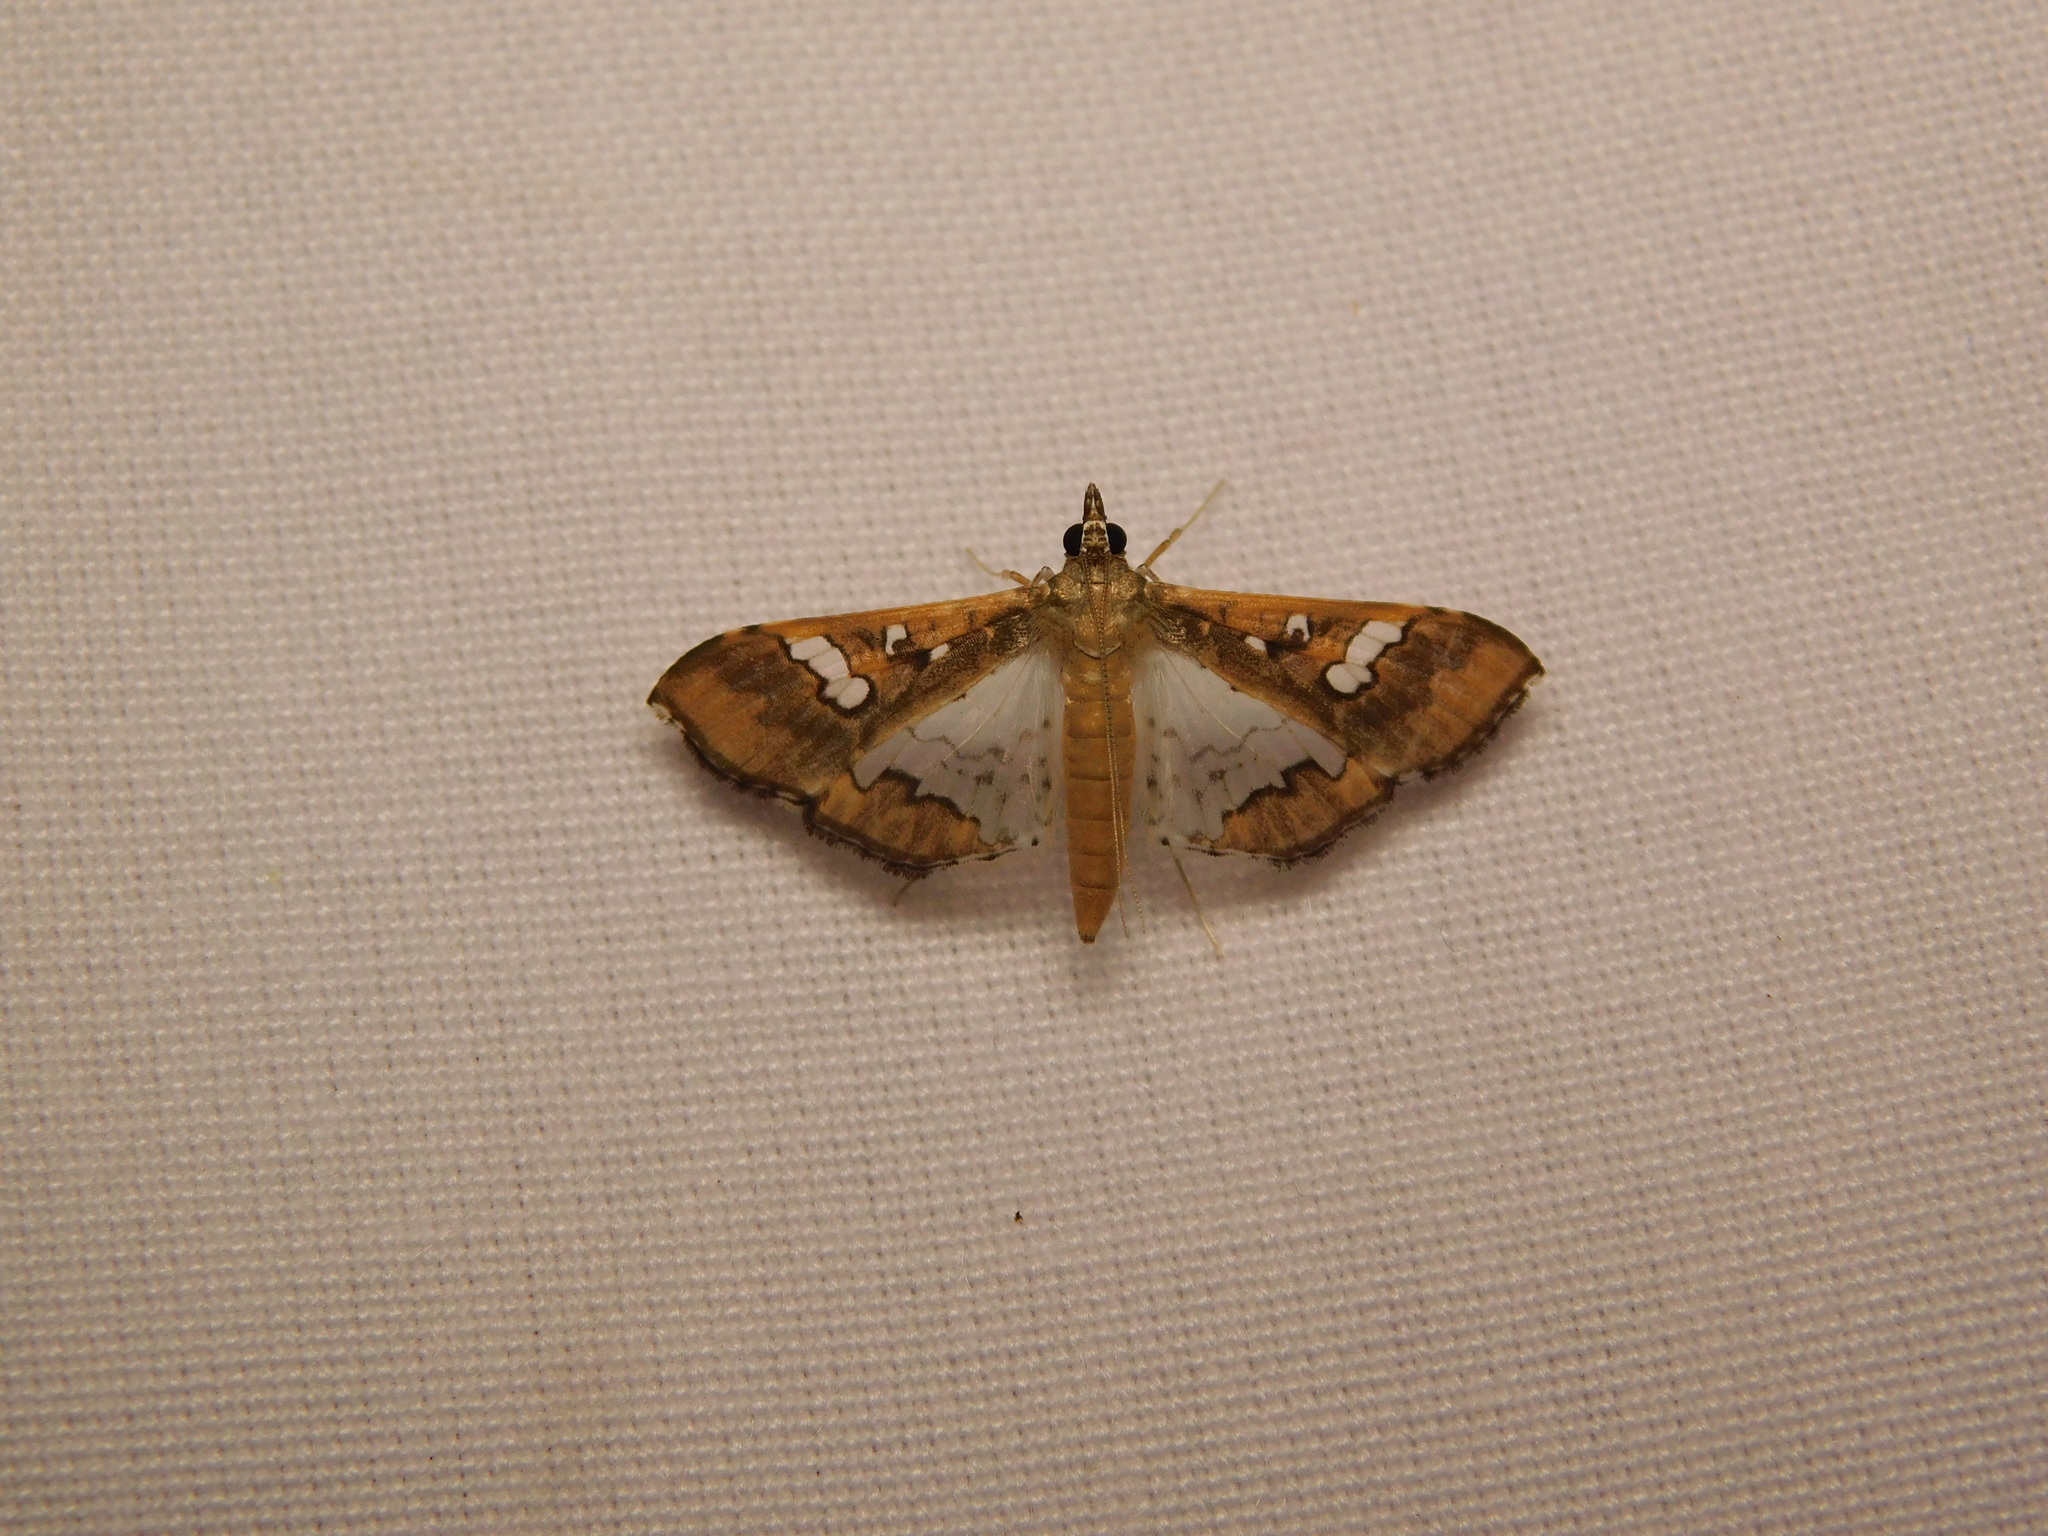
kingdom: Animalia
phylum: Arthropoda
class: Insecta
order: Lepidoptera
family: Crambidae
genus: Maruca
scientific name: Maruca vitrata
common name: Maruca pod borer
